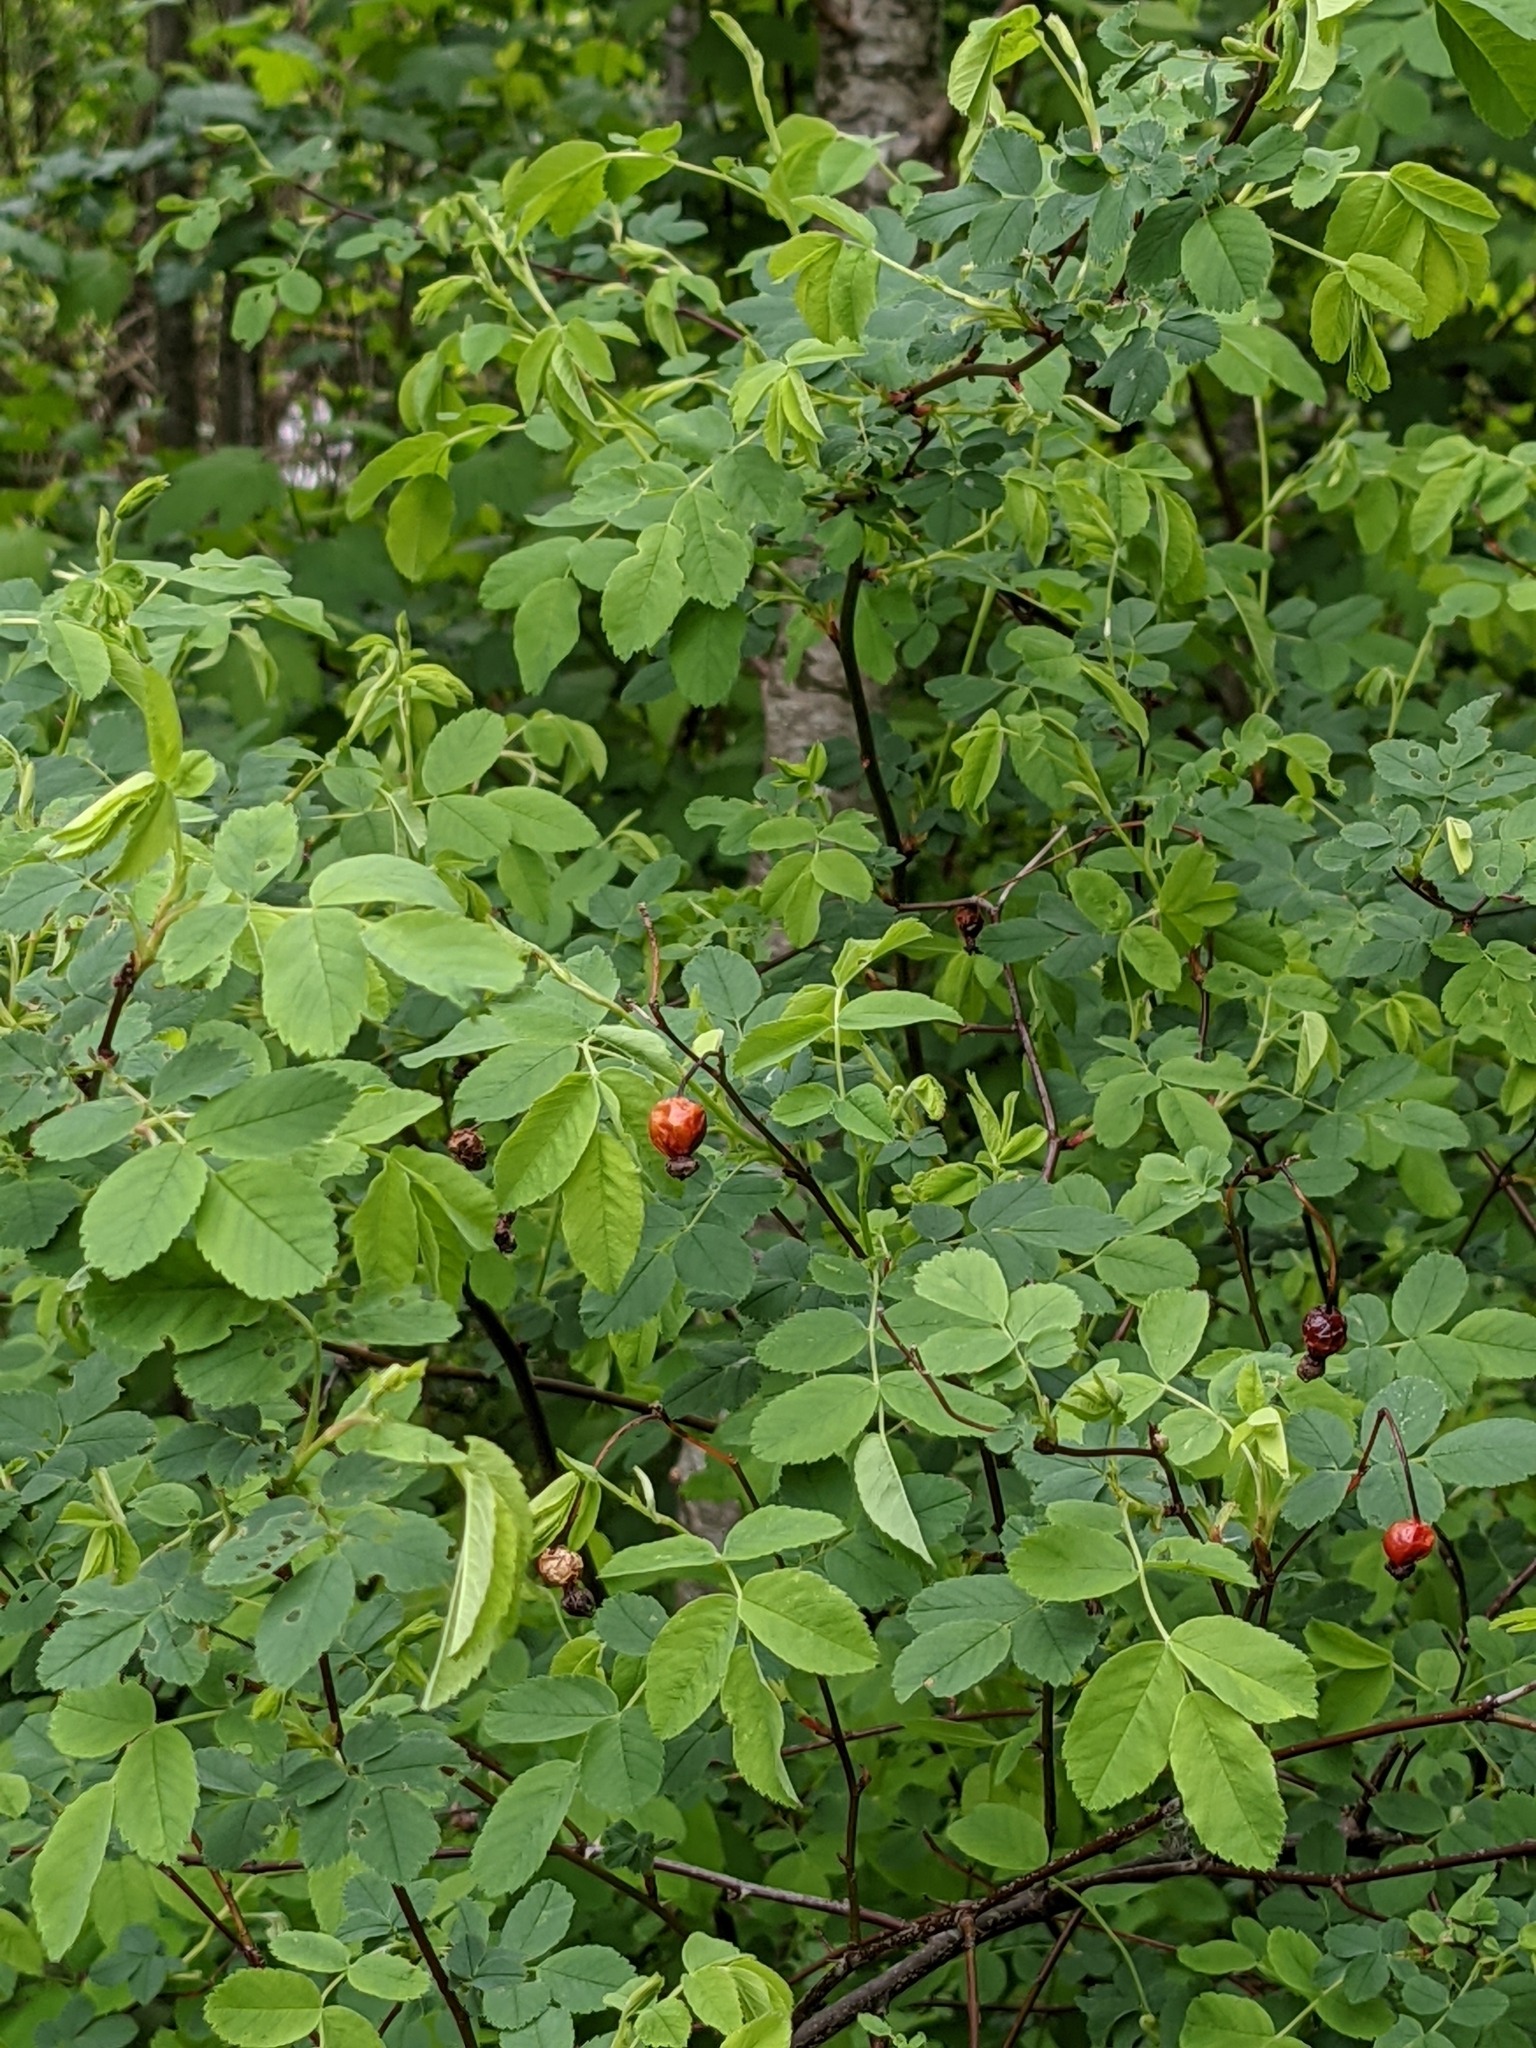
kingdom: Plantae
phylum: Tracheophyta
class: Magnoliopsida
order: Rosales
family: Rosaceae
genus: Rosa
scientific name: Rosa nutkana
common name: Nootka rose
